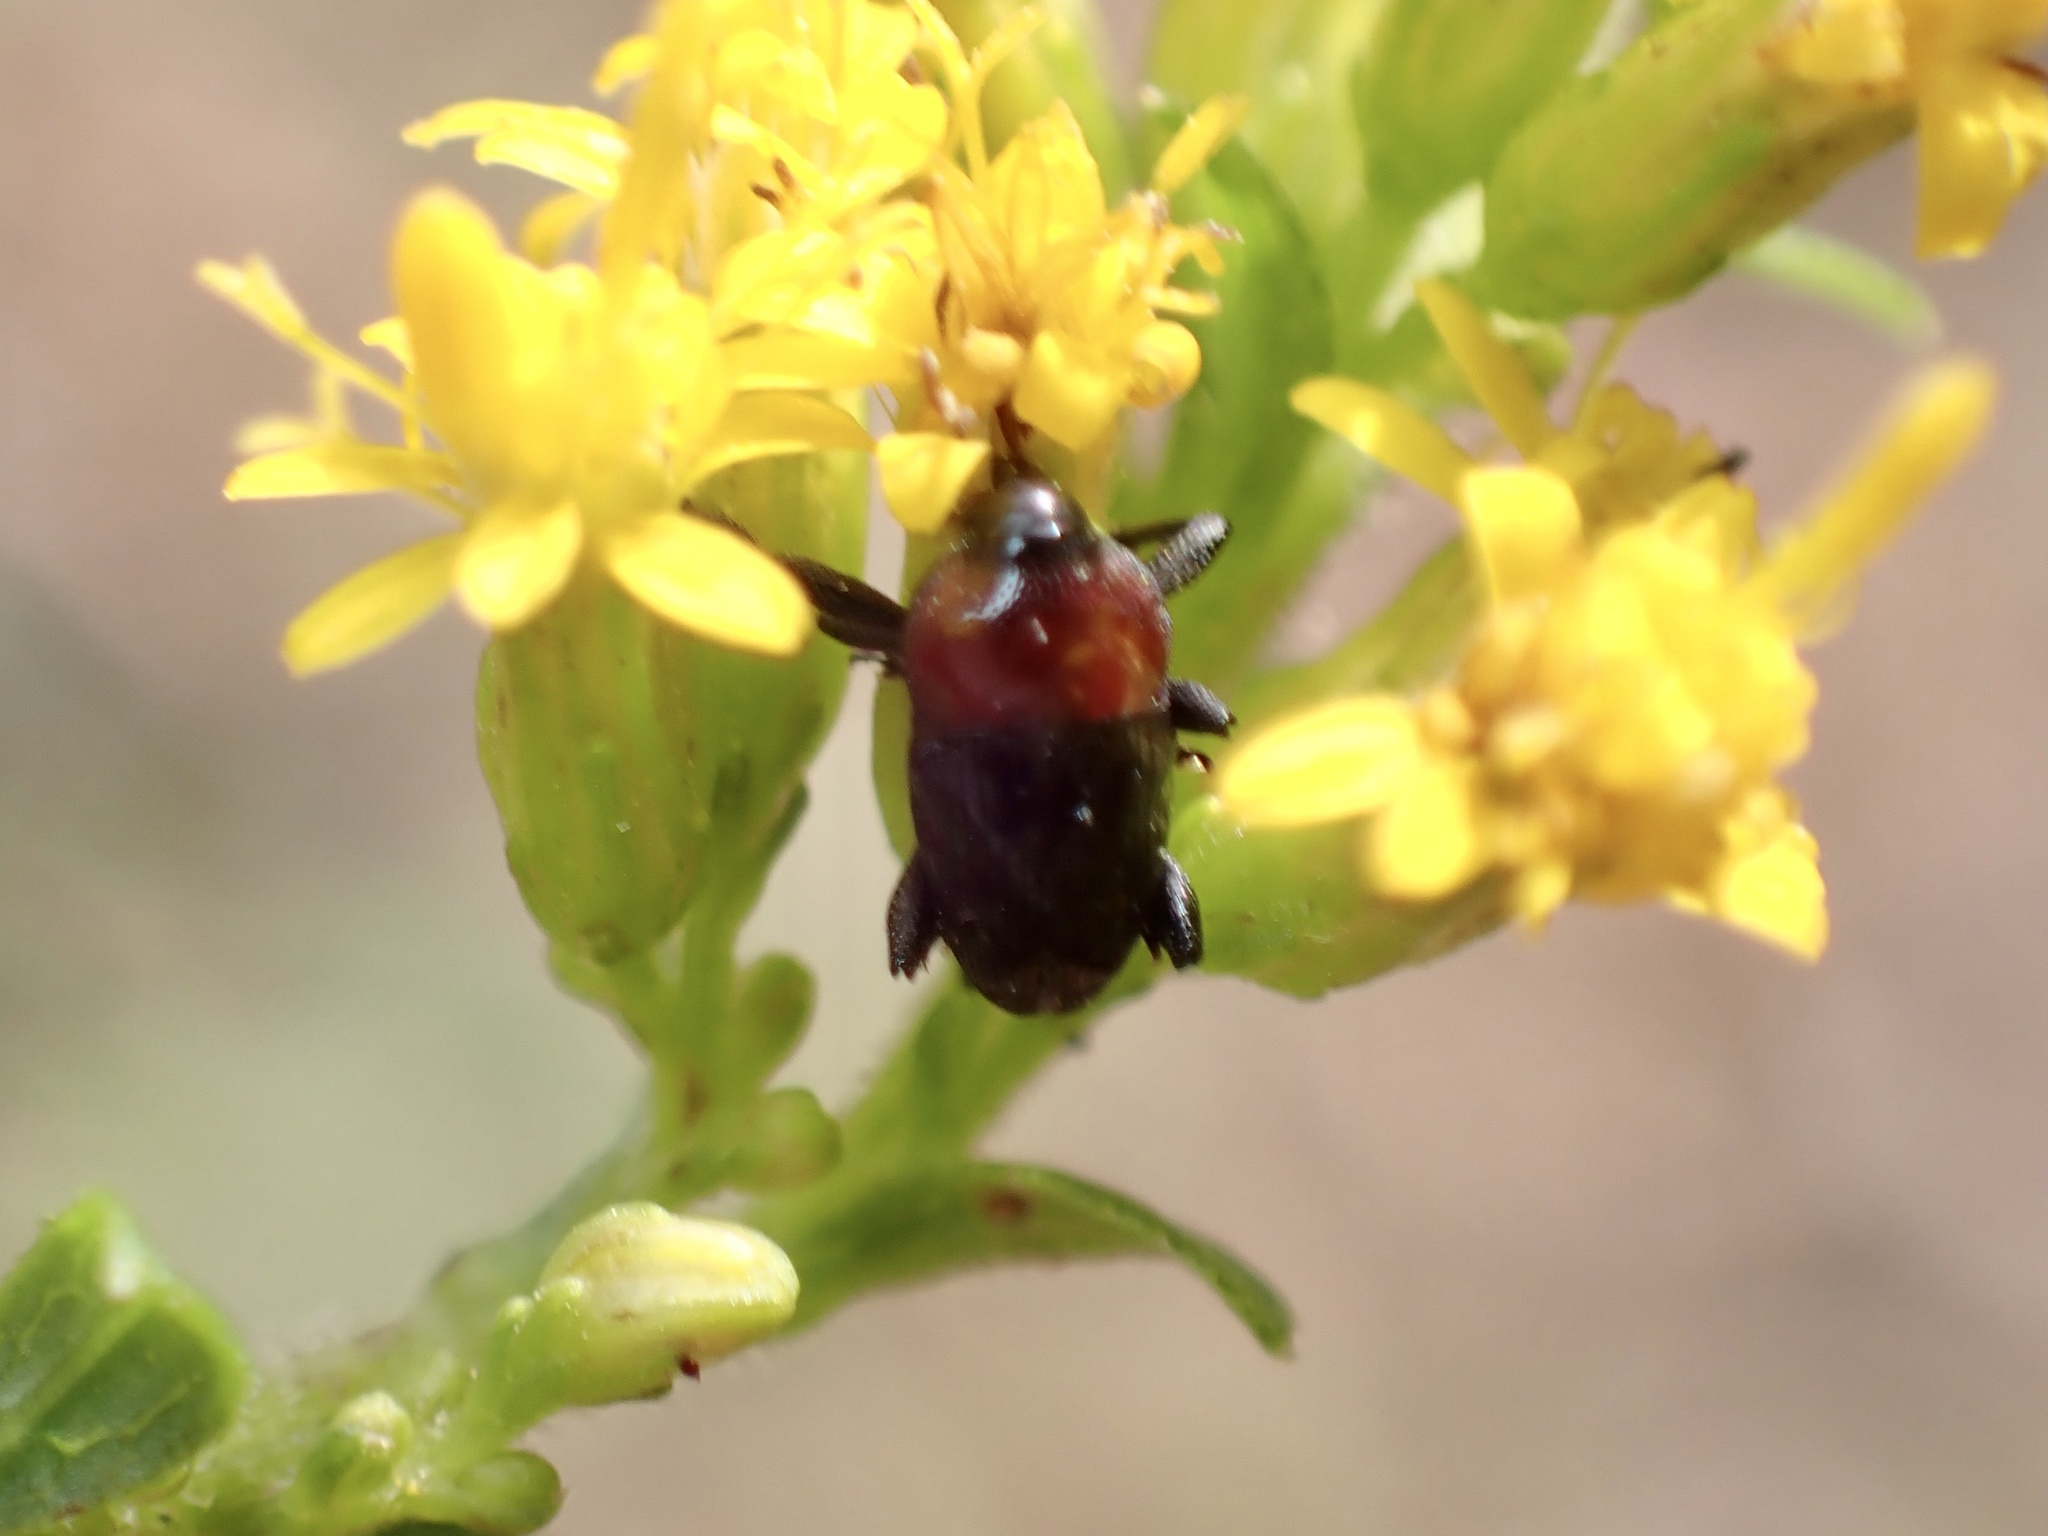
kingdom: Animalia
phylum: Arthropoda
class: Insecta
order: Coleoptera
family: Curculionidae
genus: Madarellus
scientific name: Madarellus undulatus
